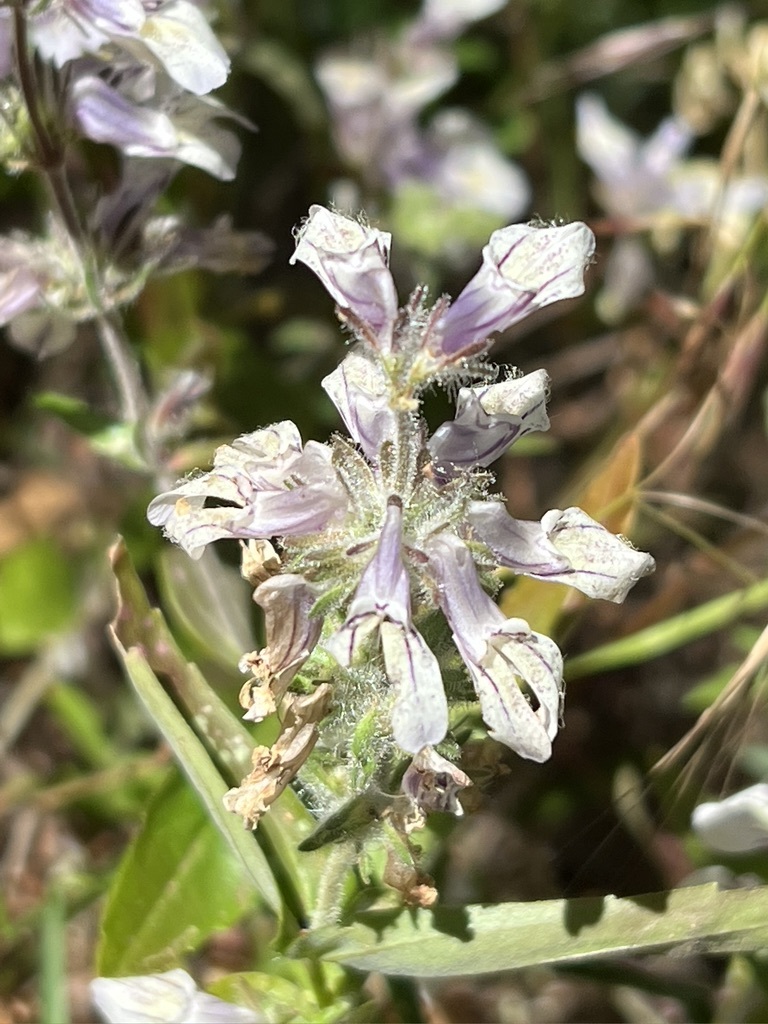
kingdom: Plantae
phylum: Tracheophyta
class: Magnoliopsida
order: Lamiales
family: Plantaginaceae
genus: Collinsia
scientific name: Collinsia tinctoria
